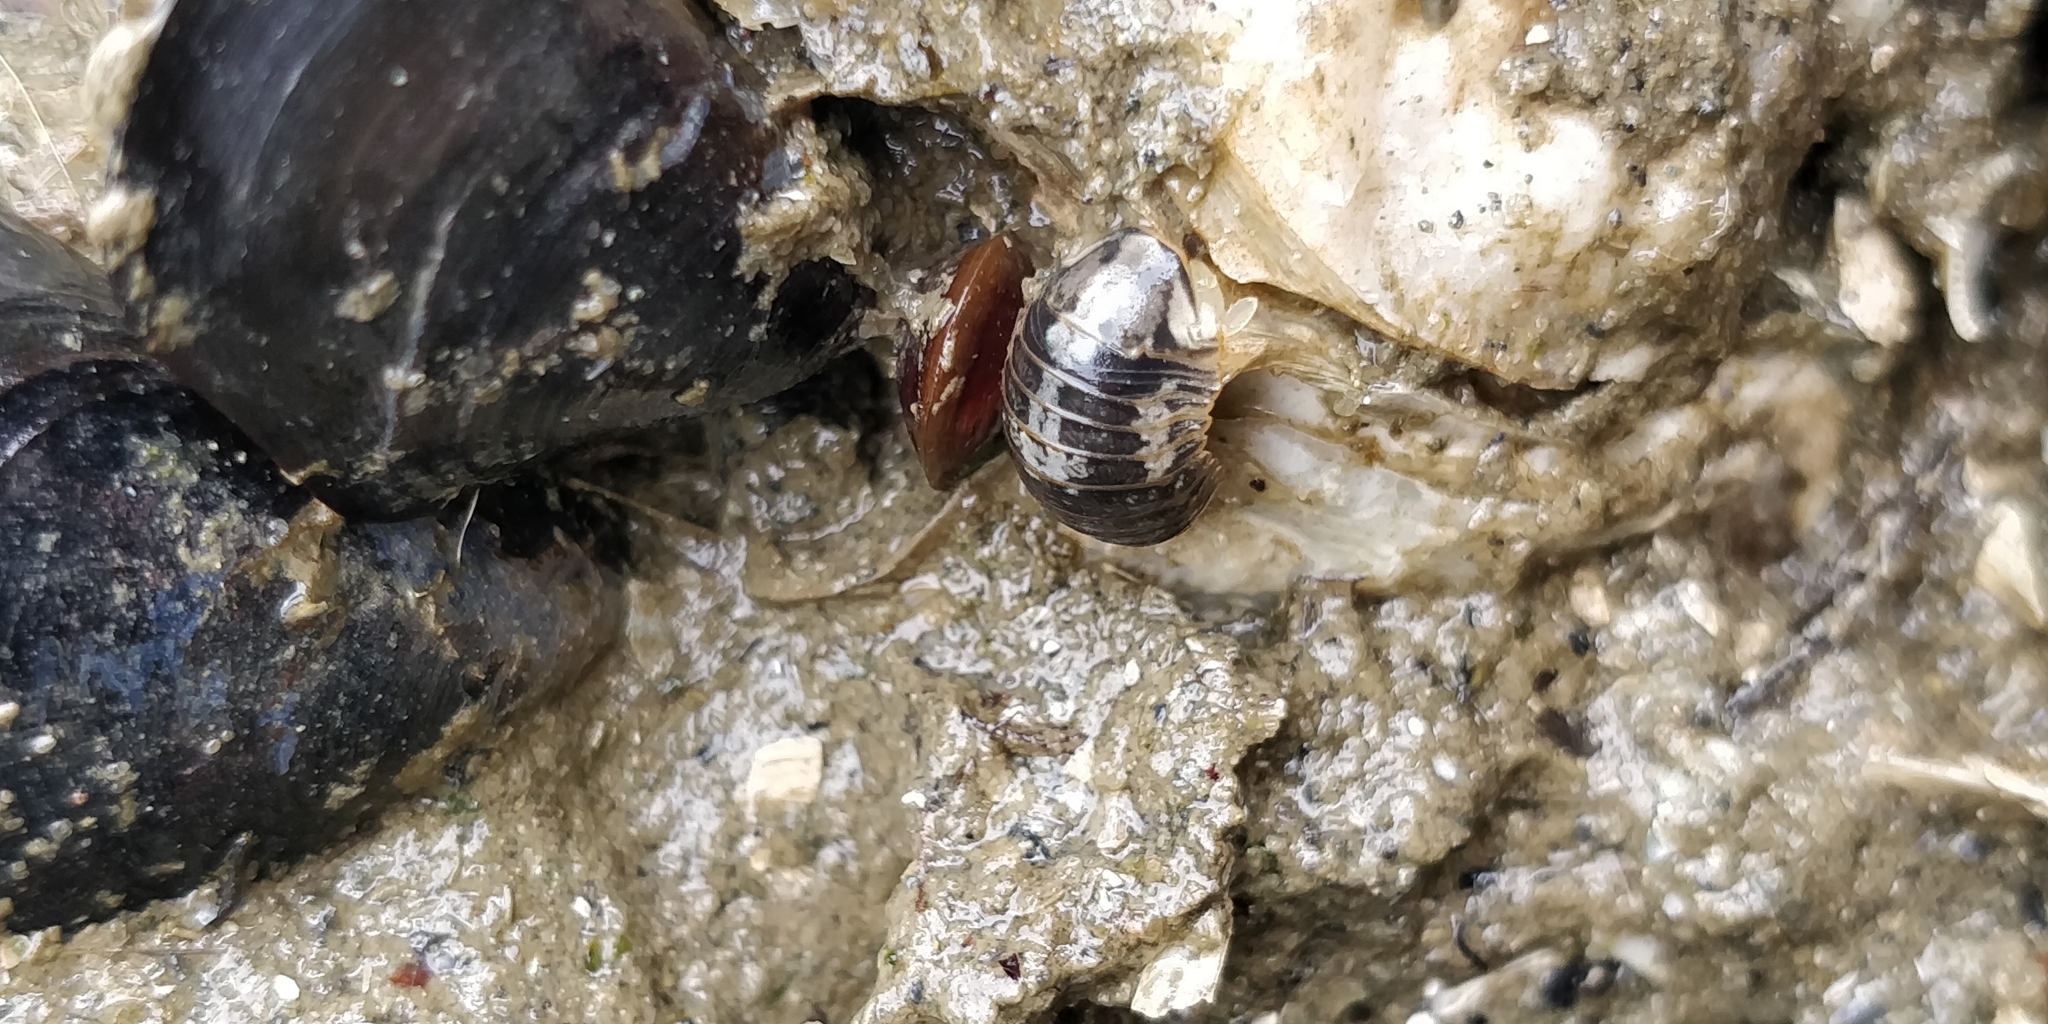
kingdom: Animalia
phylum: Arthropoda
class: Malacostraca
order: Isopoda
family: Sphaeromatidae
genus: Gnorimosphaeroma
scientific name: Gnorimosphaeroma oregonense
